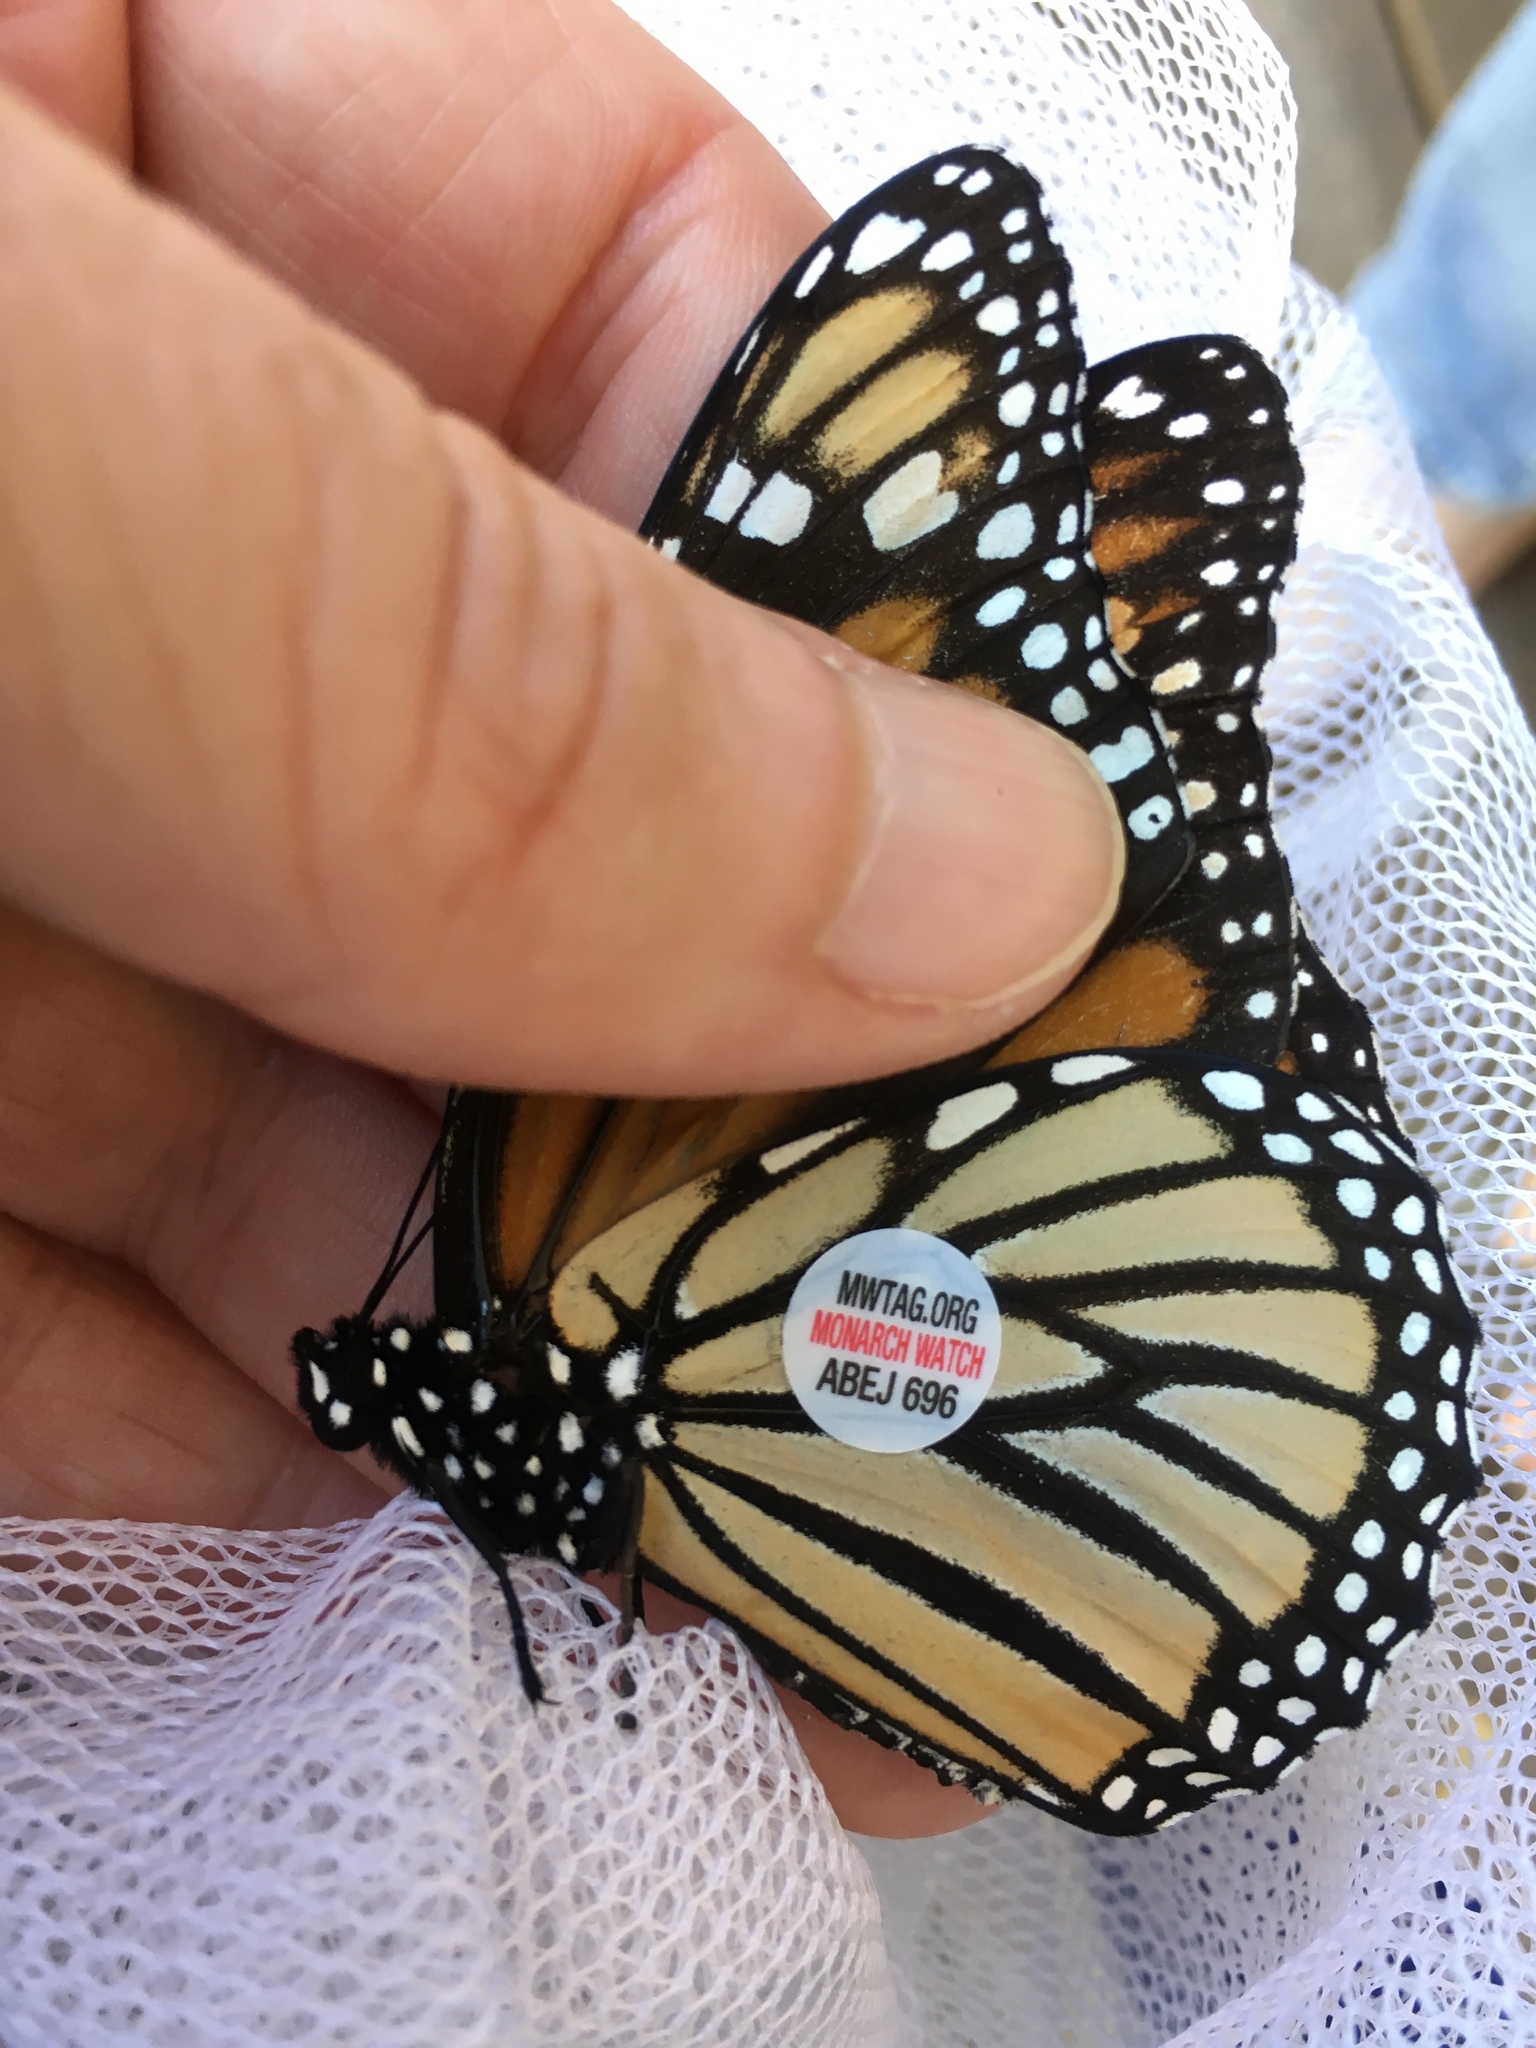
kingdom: Animalia
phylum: Arthropoda
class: Insecta
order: Lepidoptera
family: Nymphalidae
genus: Danaus
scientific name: Danaus plexippus
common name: Monarch
